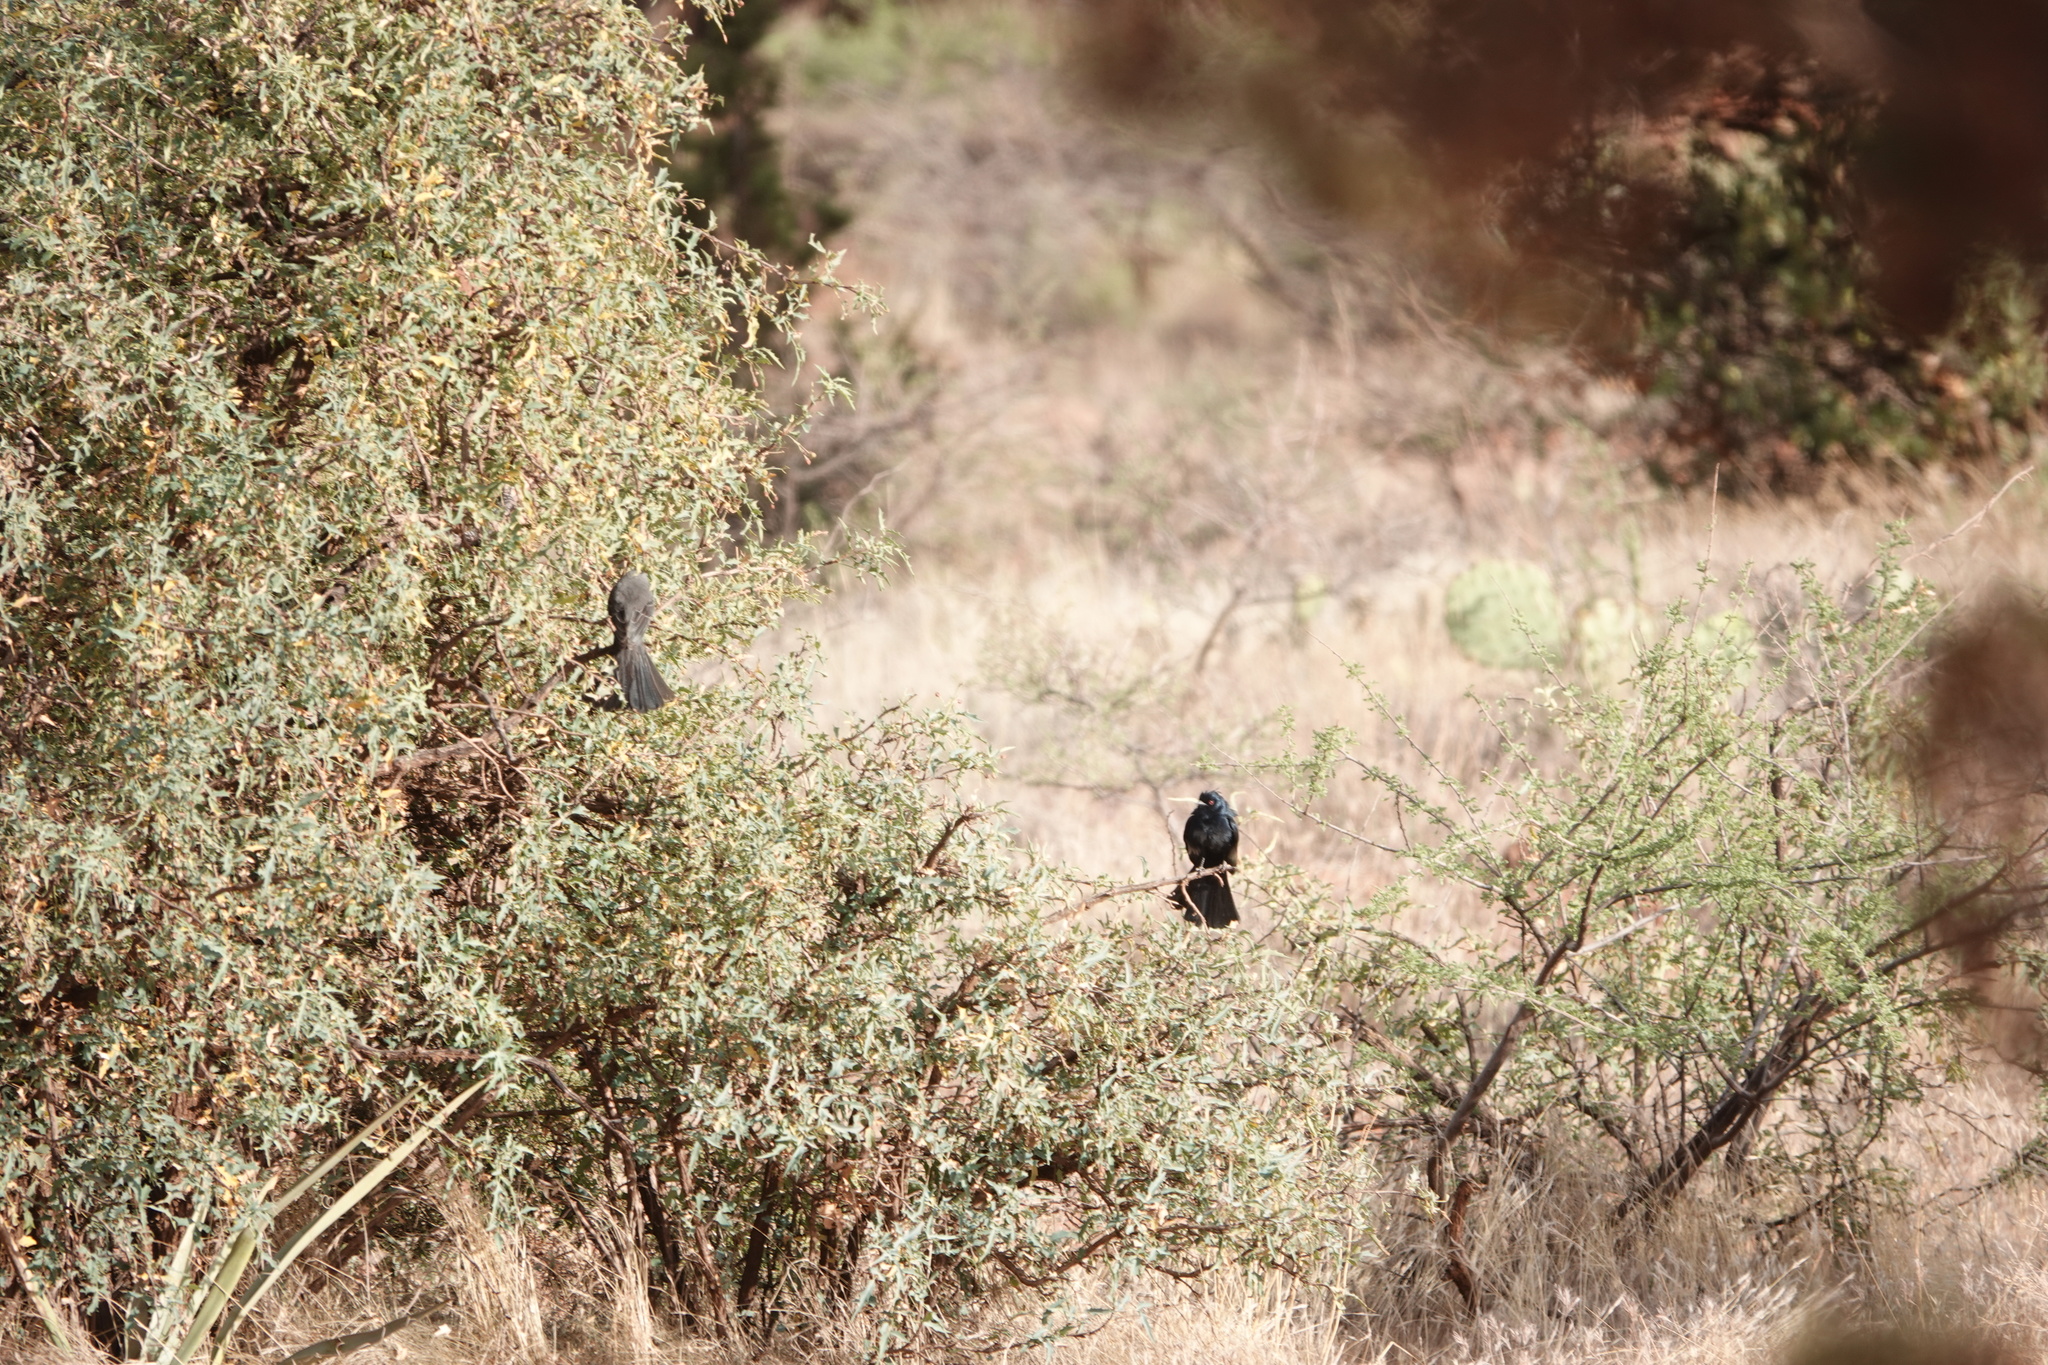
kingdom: Animalia
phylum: Chordata
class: Aves
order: Passeriformes
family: Ptilogonatidae
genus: Phainopepla
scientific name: Phainopepla nitens
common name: Phainopepla
